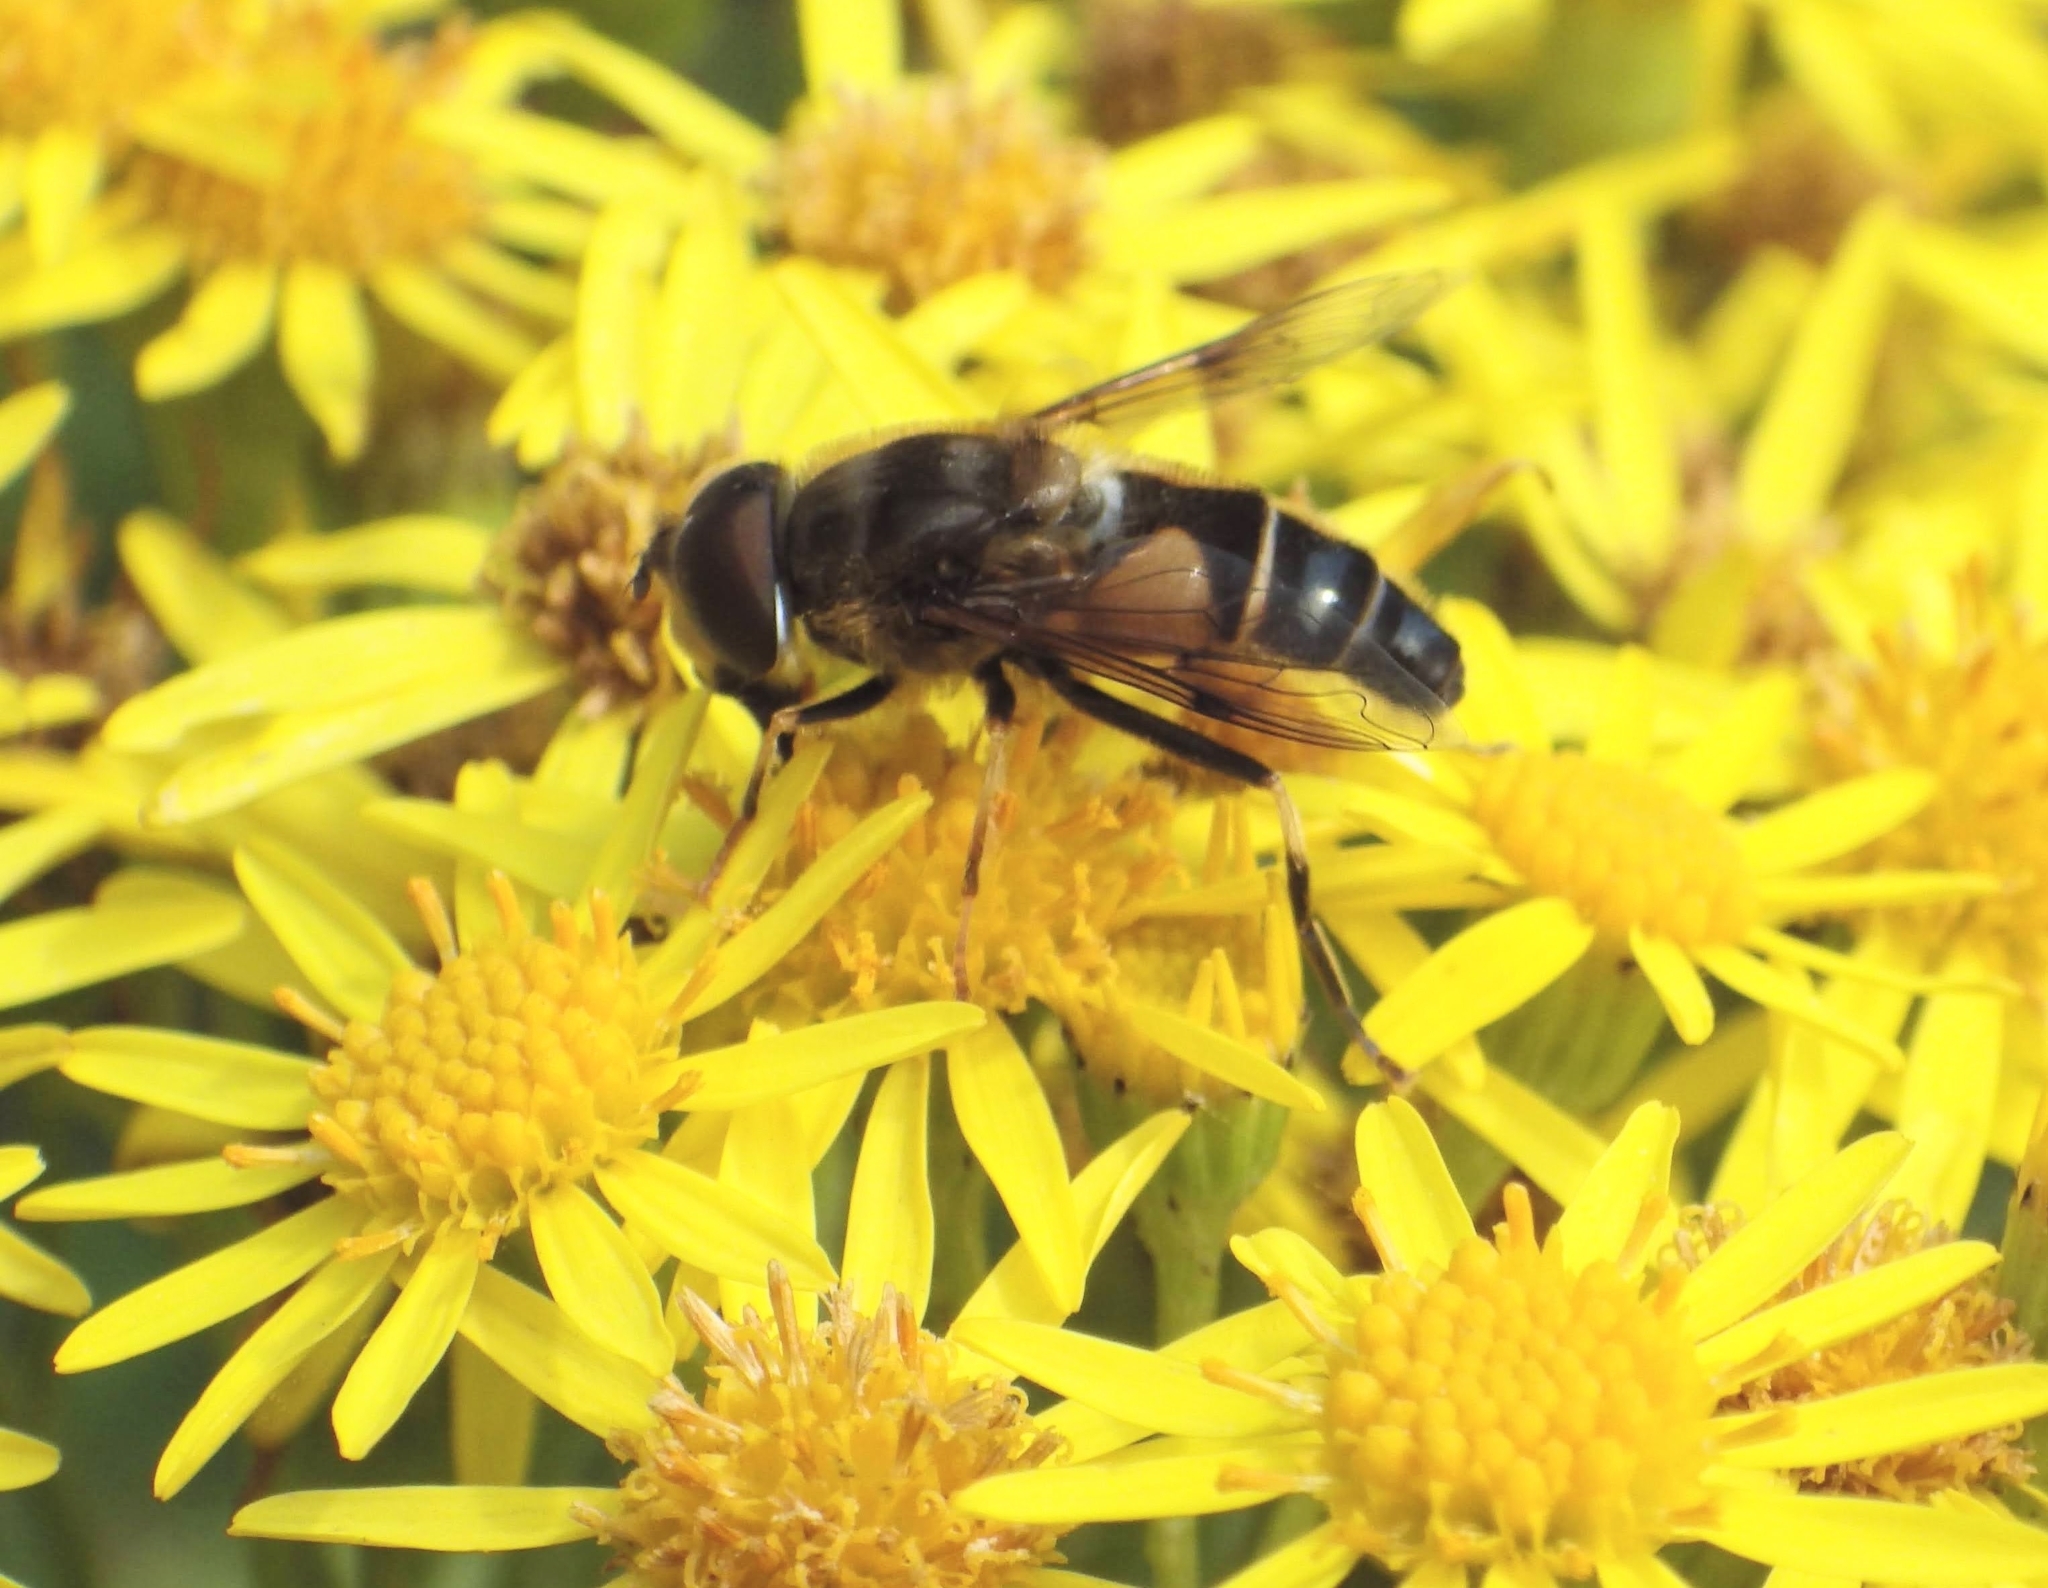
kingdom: Animalia
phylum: Arthropoda
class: Insecta
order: Diptera
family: Syrphidae
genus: Eristalis
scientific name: Eristalis pertinax
